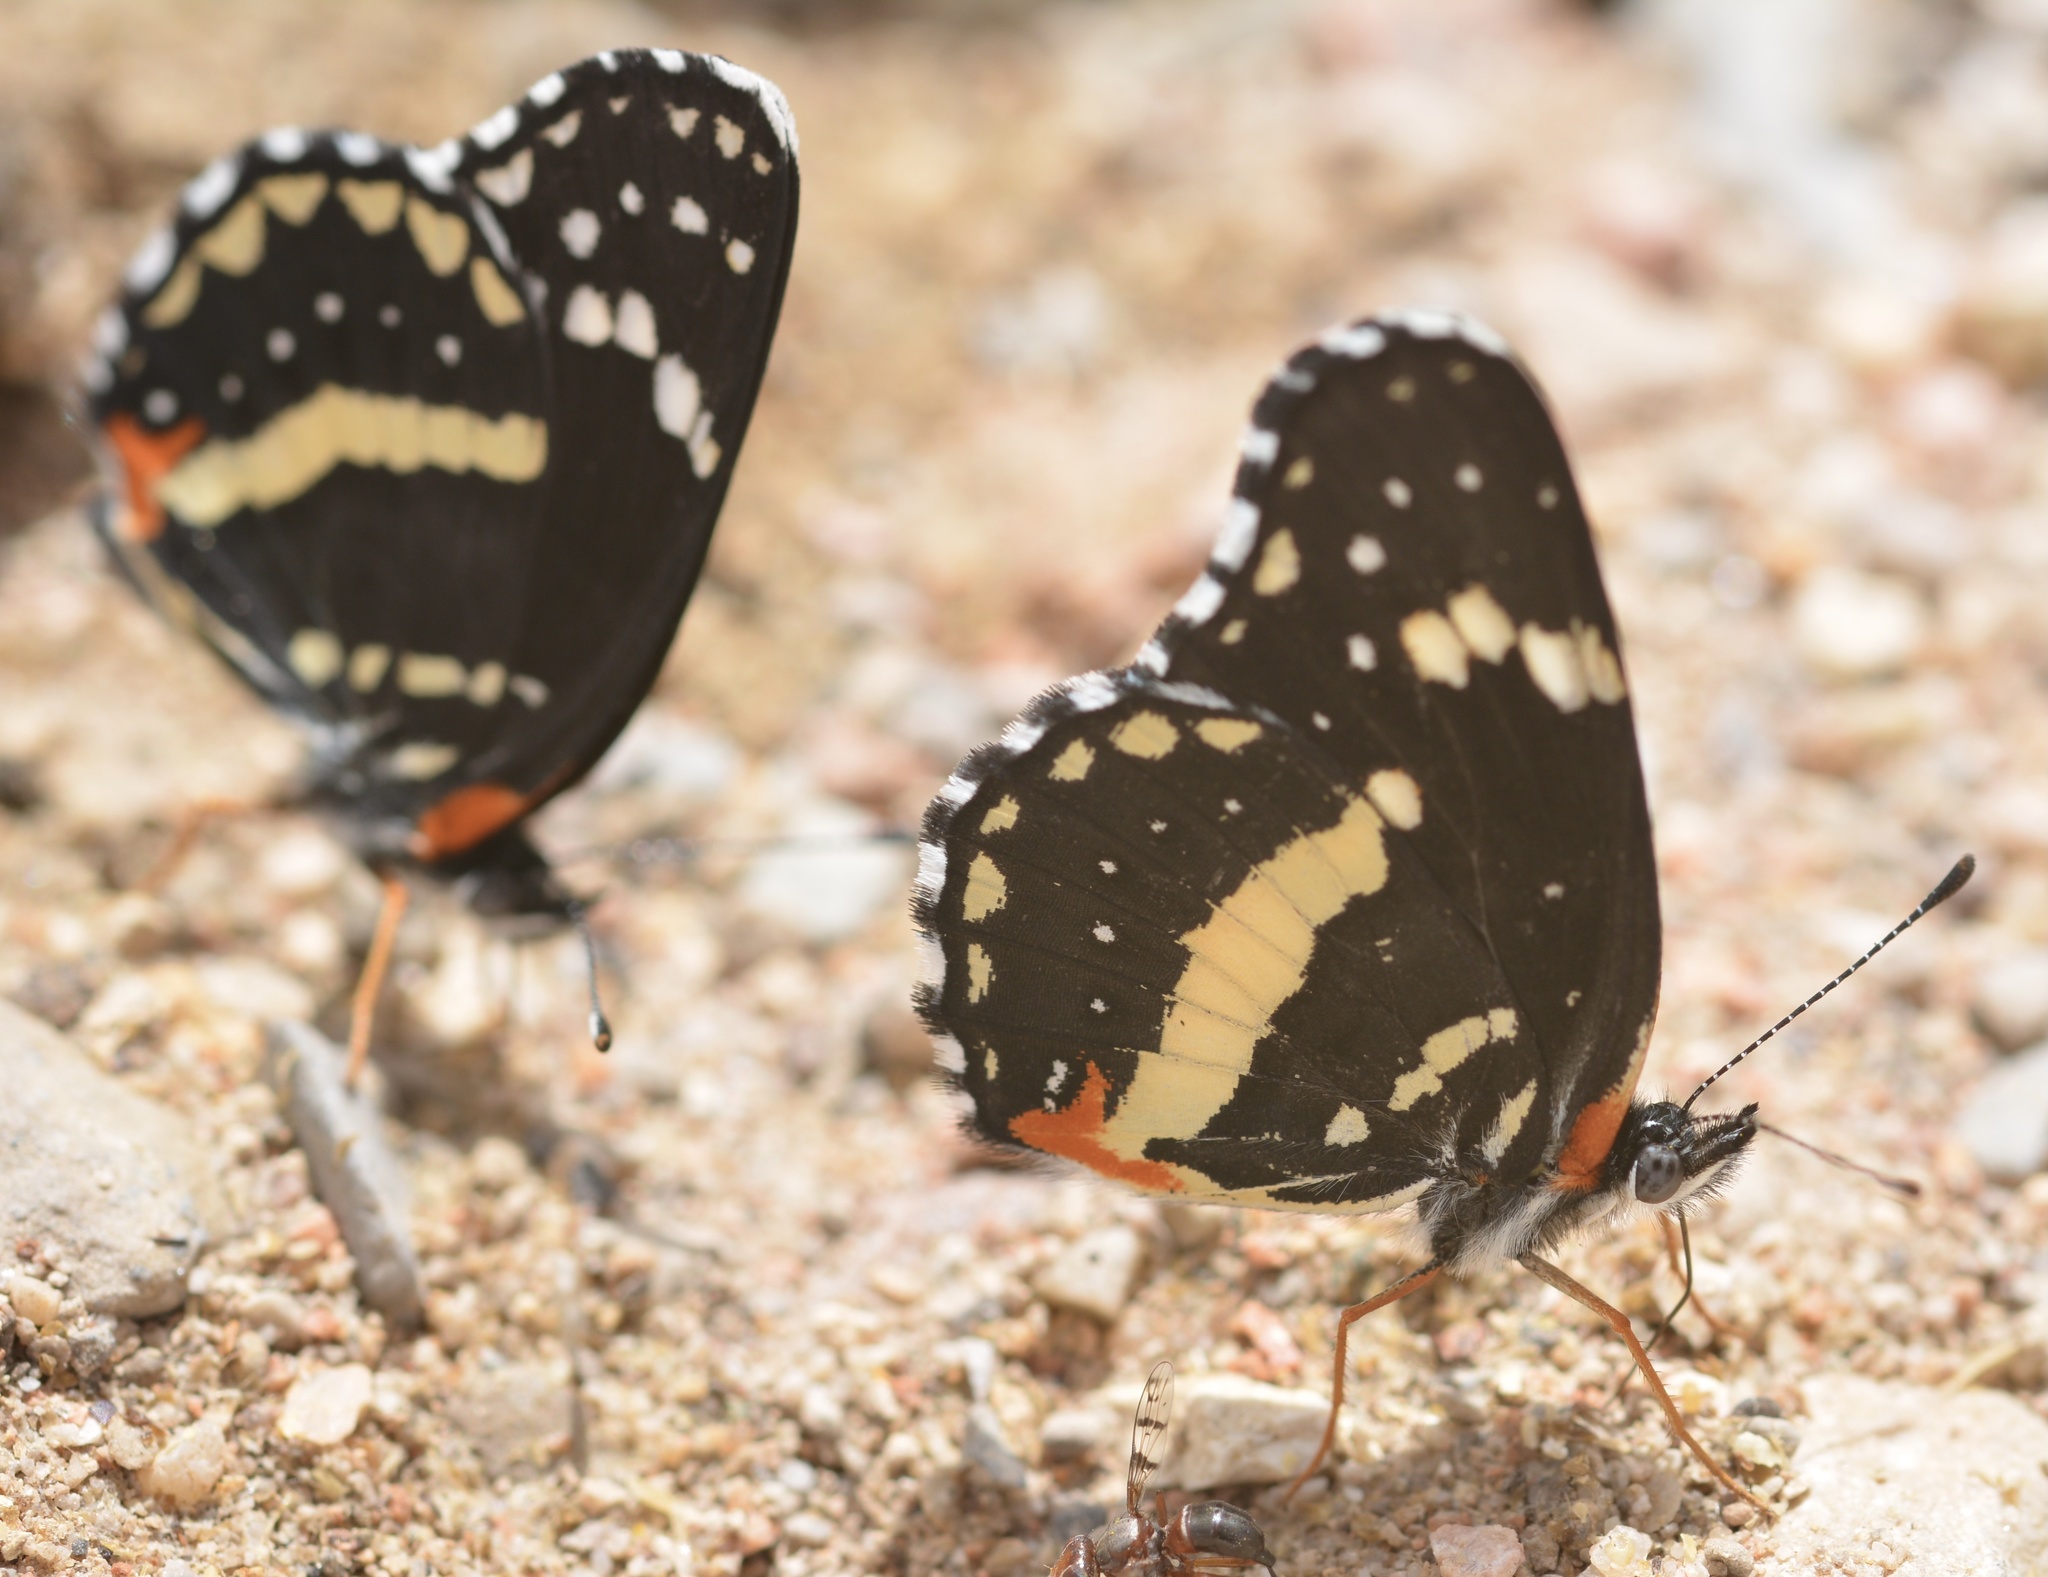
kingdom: Animalia
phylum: Arthropoda
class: Insecta
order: Lepidoptera
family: Nymphalidae
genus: Chlosyne
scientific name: Chlosyne lacinia
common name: Bordered patch
